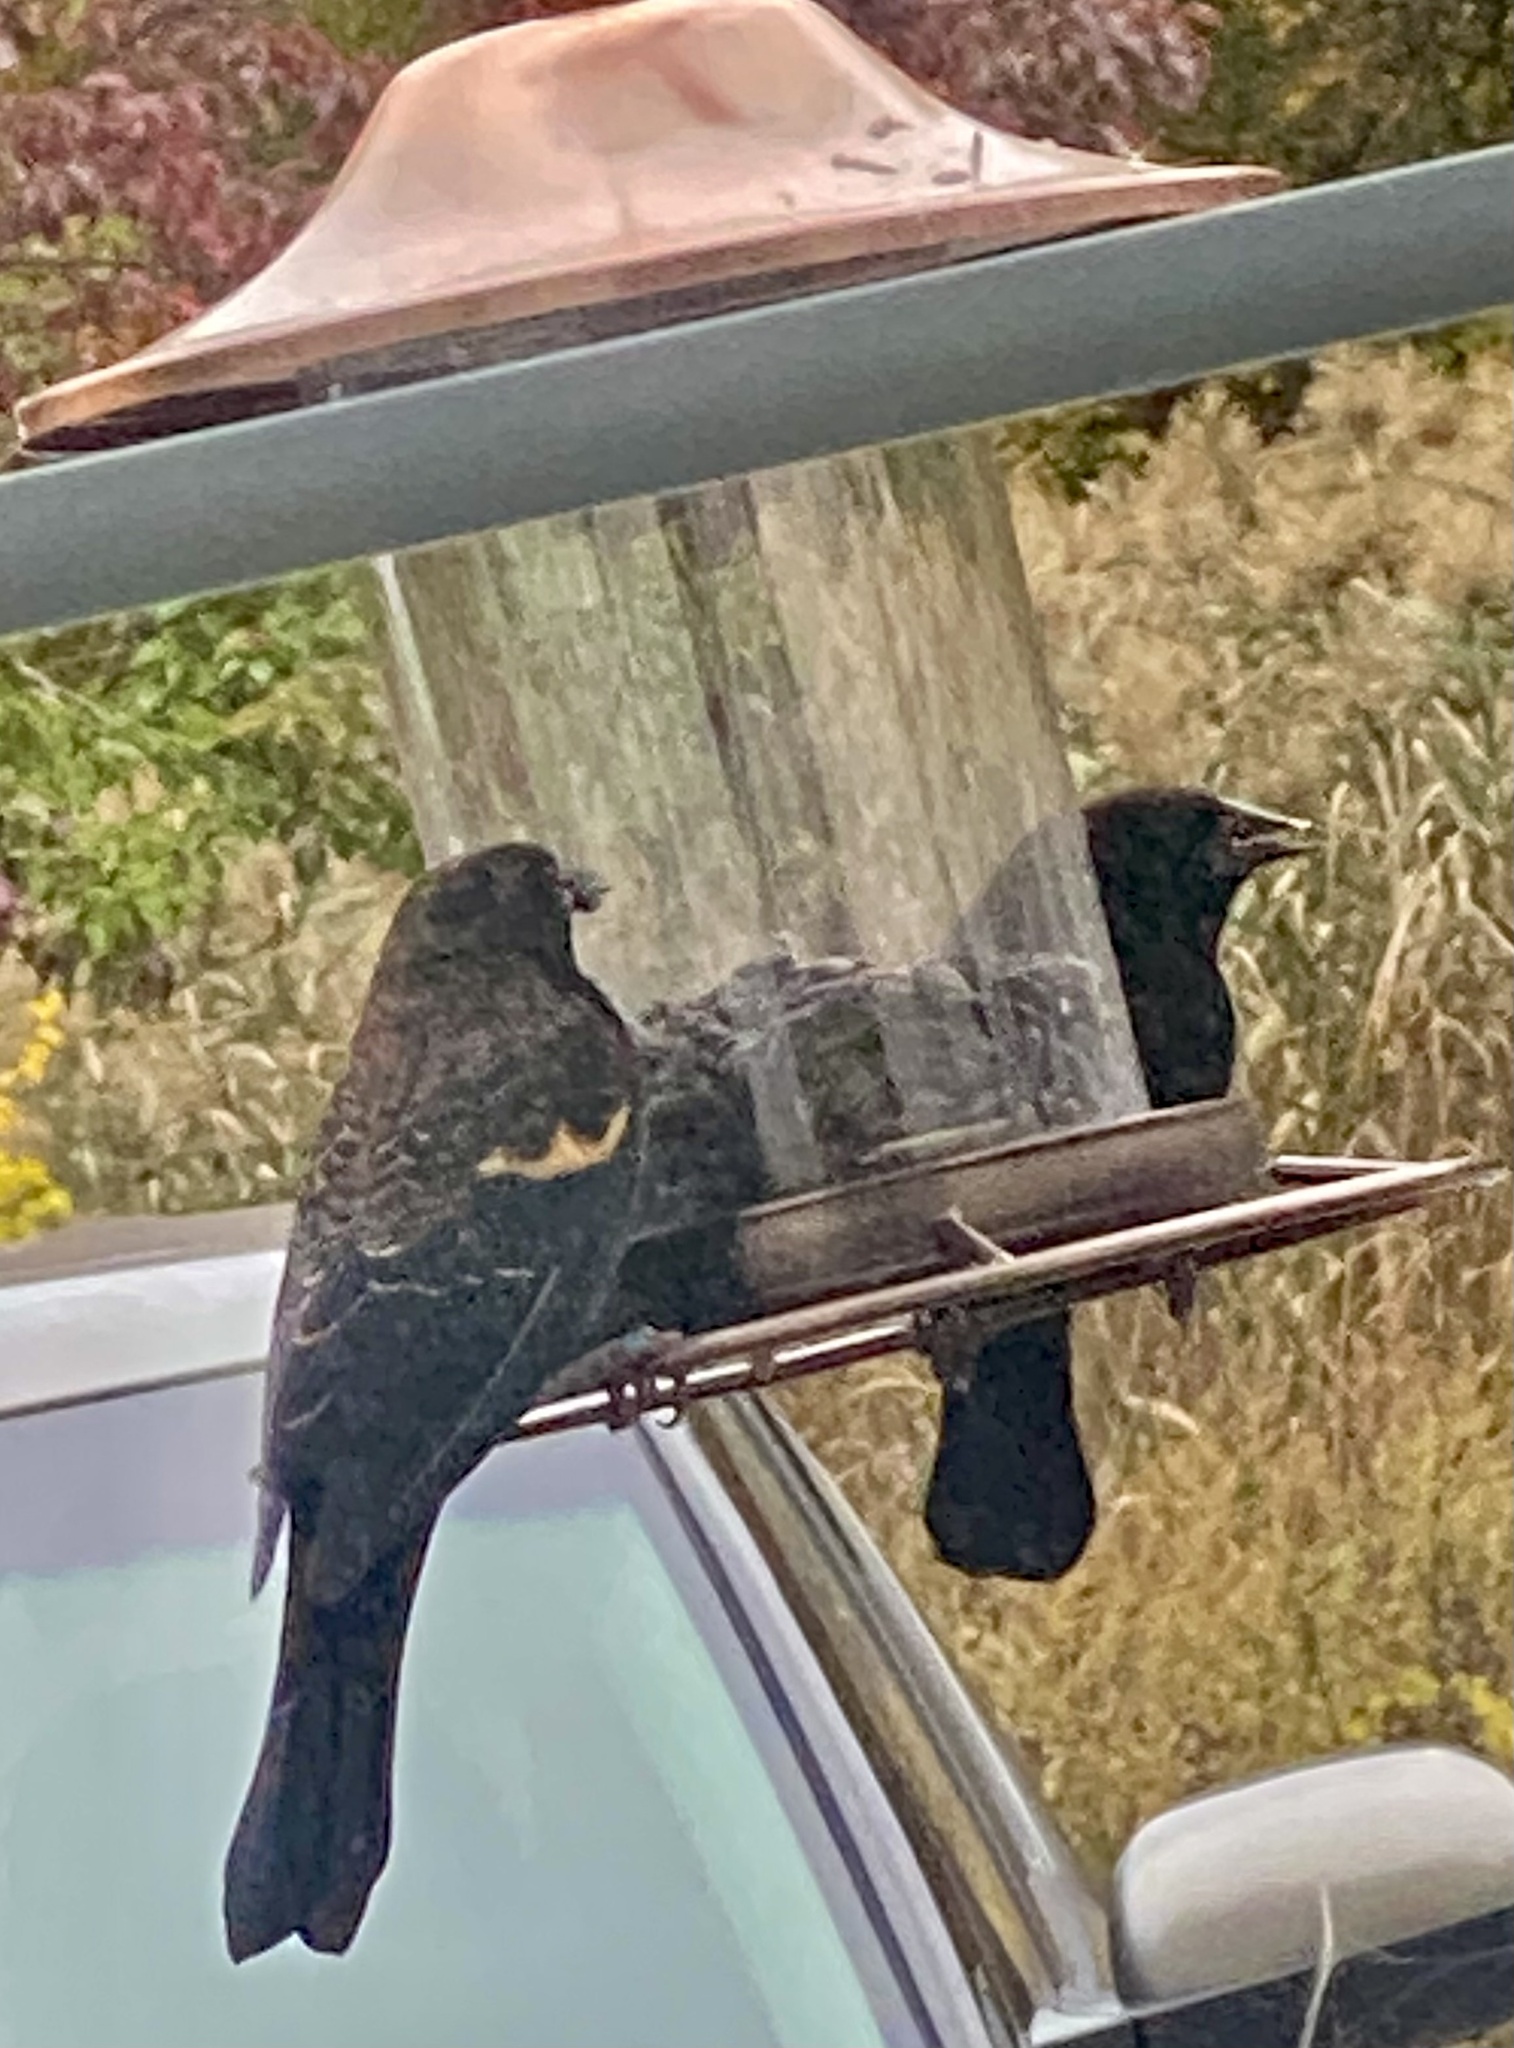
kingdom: Animalia
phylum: Chordata
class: Aves
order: Passeriformes
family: Icteridae
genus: Agelaius
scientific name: Agelaius phoeniceus
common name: Red-winged blackbird
